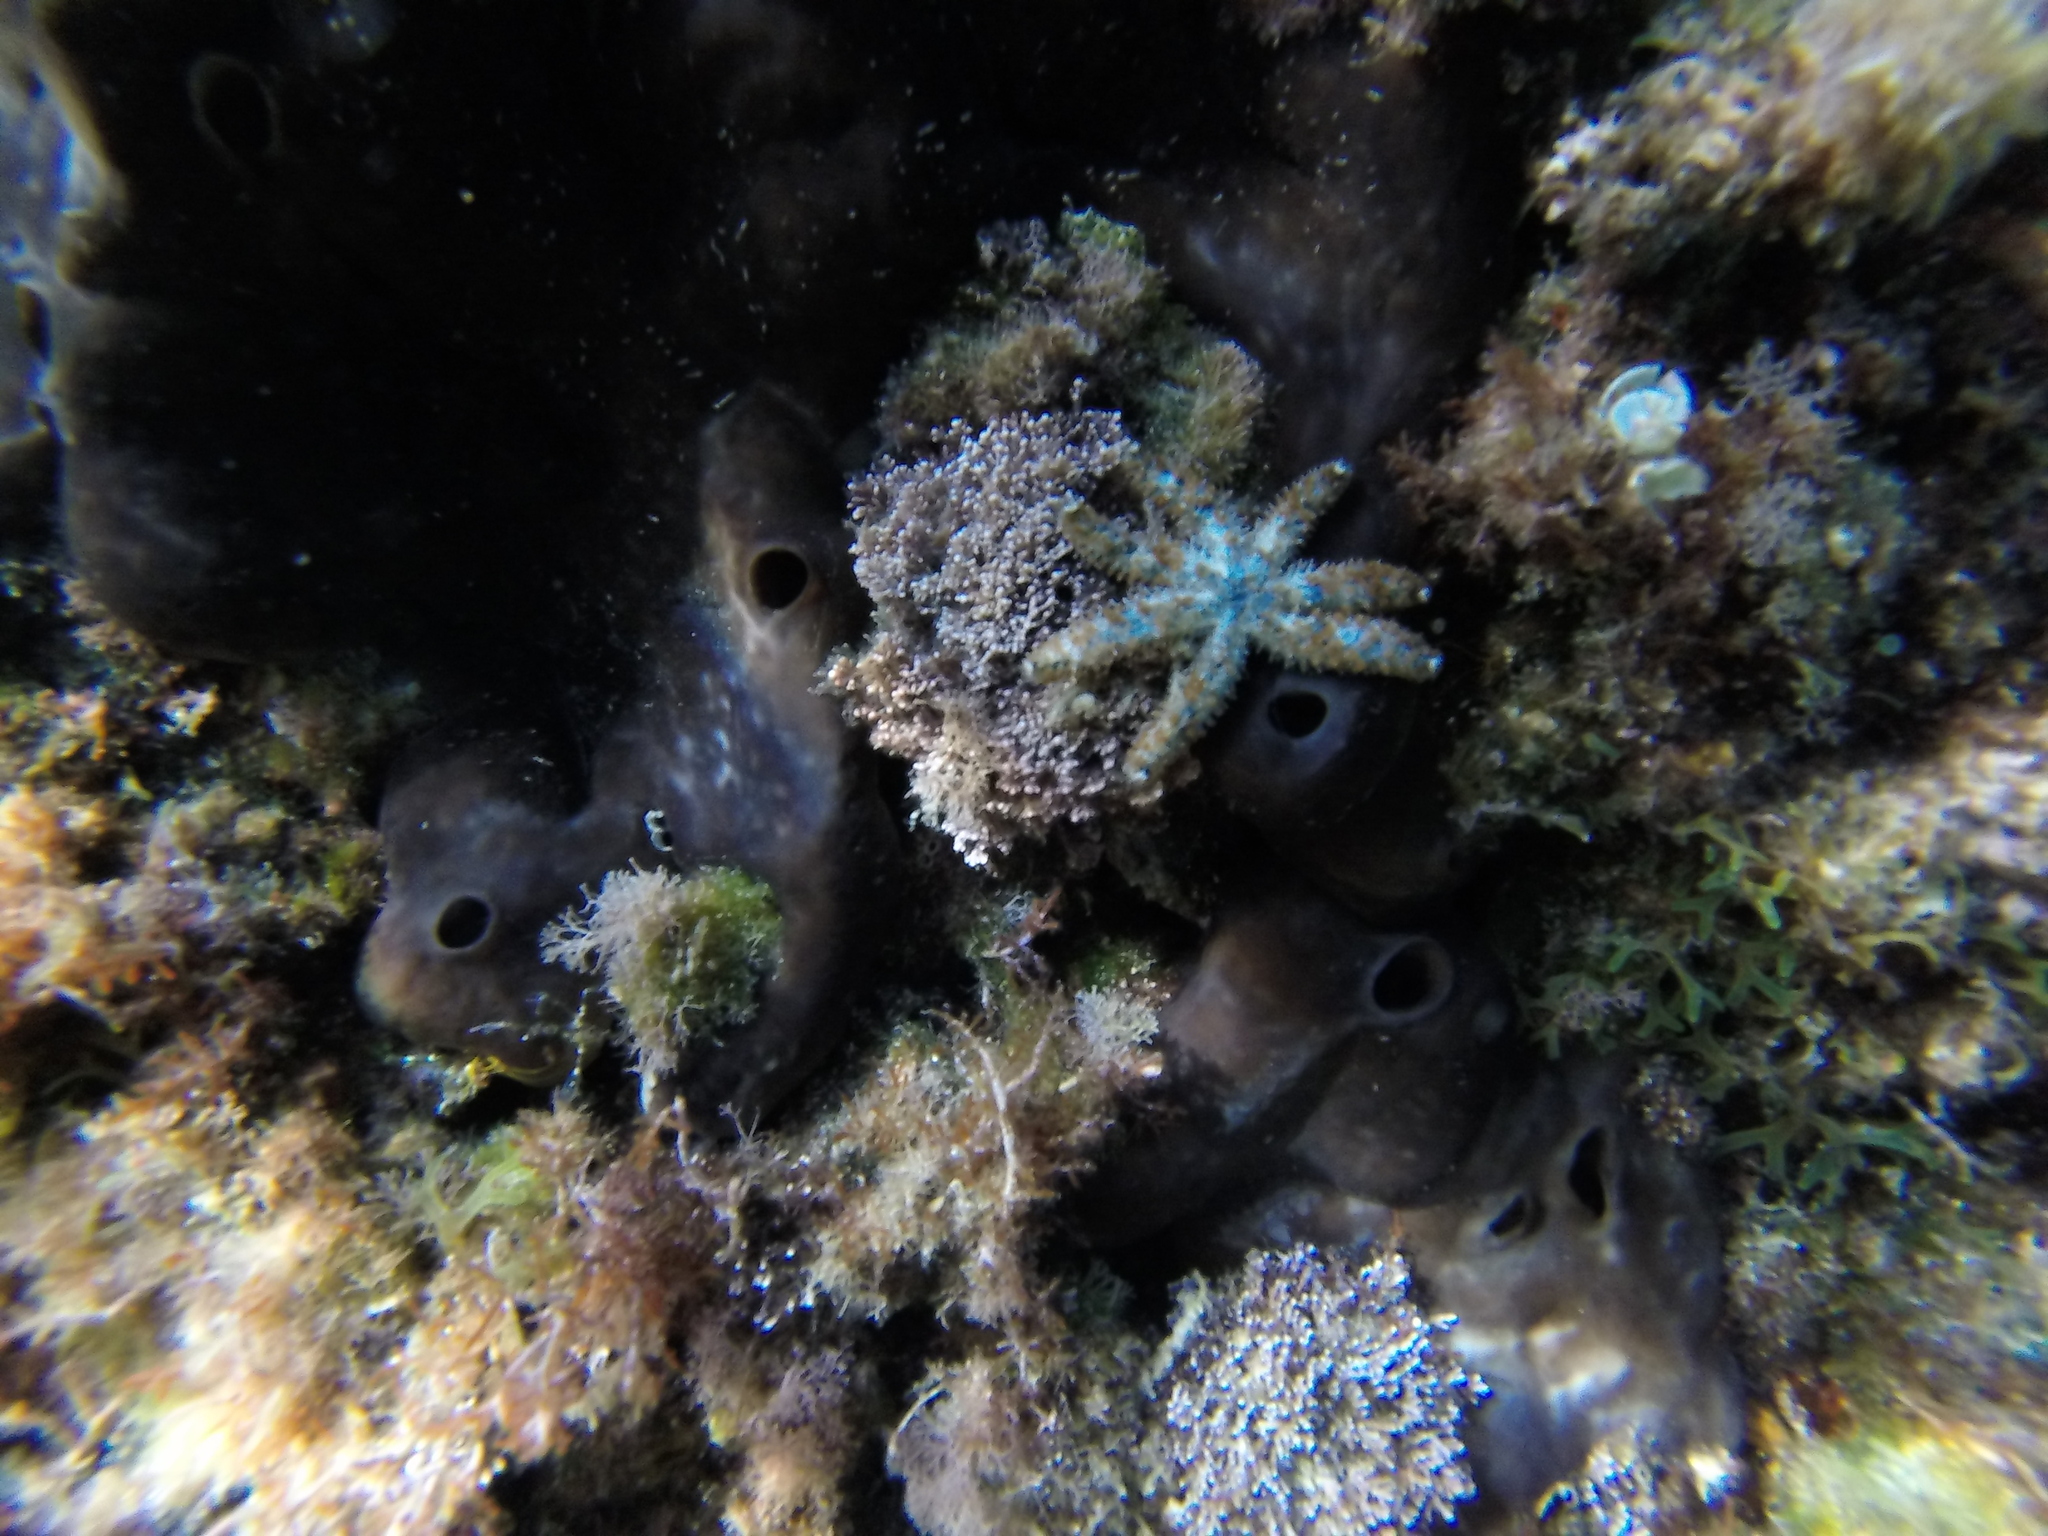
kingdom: Animalia
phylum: Echinodermata
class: Asteroidea
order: Forcipulatida
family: Asteriidae
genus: Coscinasterias
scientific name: Coscinasterias tenuispina
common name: Blue spiny starfish
